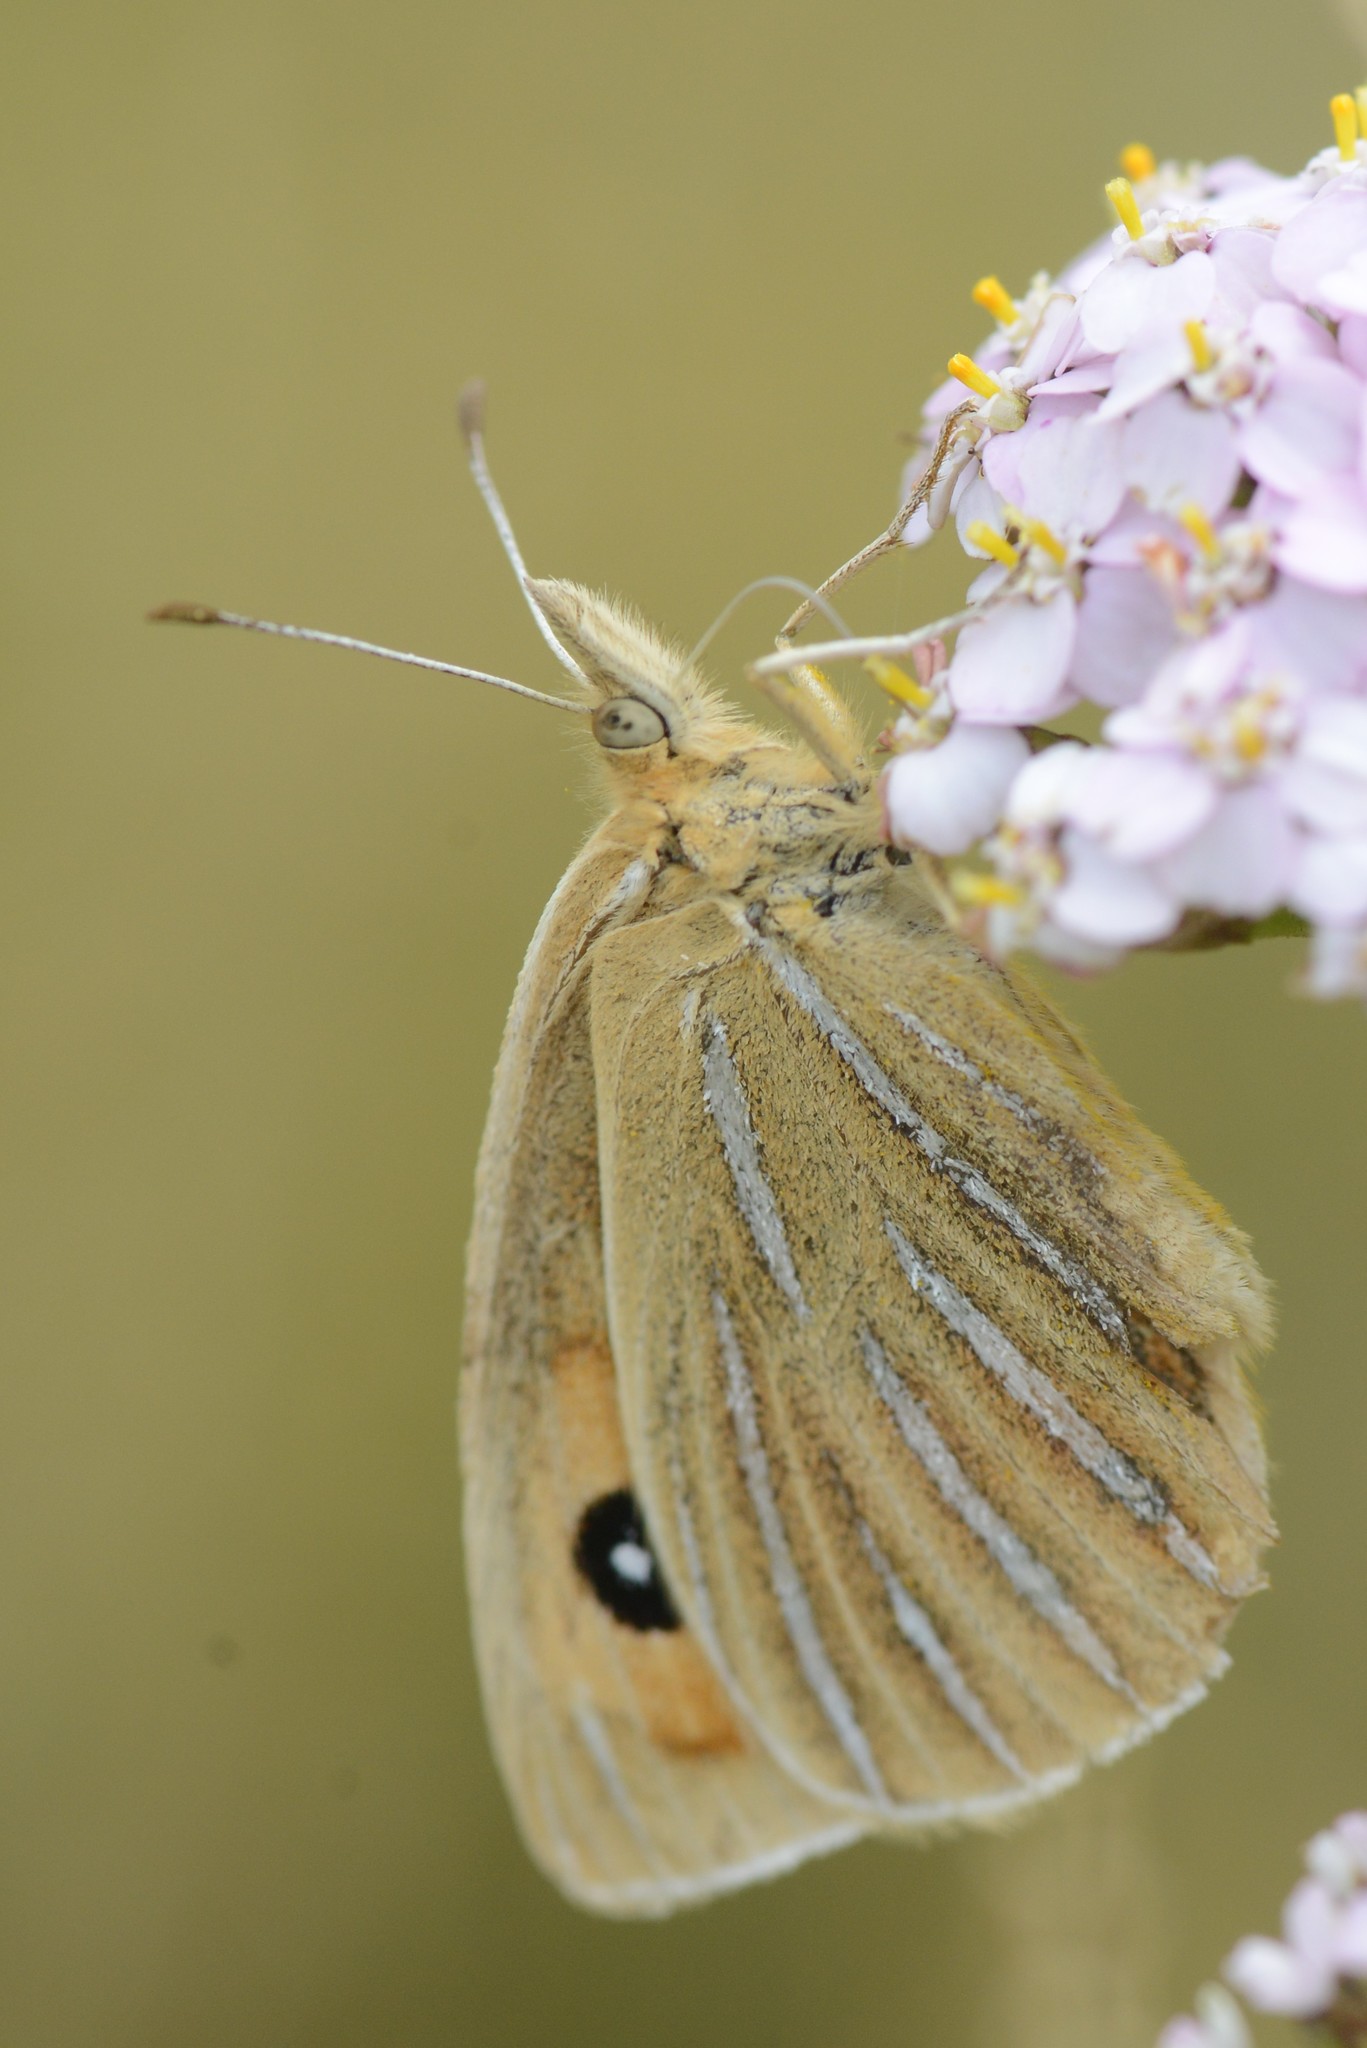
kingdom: Animalia
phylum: Arthropoda
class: Insecta
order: Lepidoptera
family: Nymphalidae
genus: Argyrophenga
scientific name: Argyrophenga antipodum
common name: Common tussock butterfly
